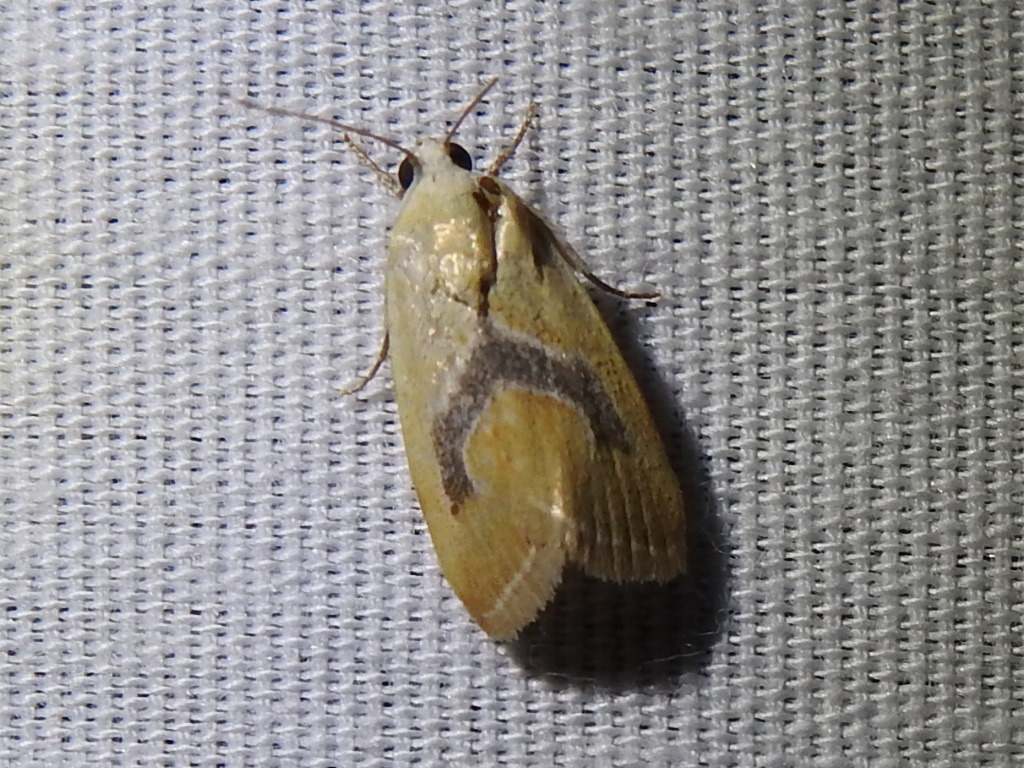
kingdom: Animalia
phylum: Arthropoda
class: Insecta
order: Lepidoptera
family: Noctuidae
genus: Ponometia
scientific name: Ponometia venustula
